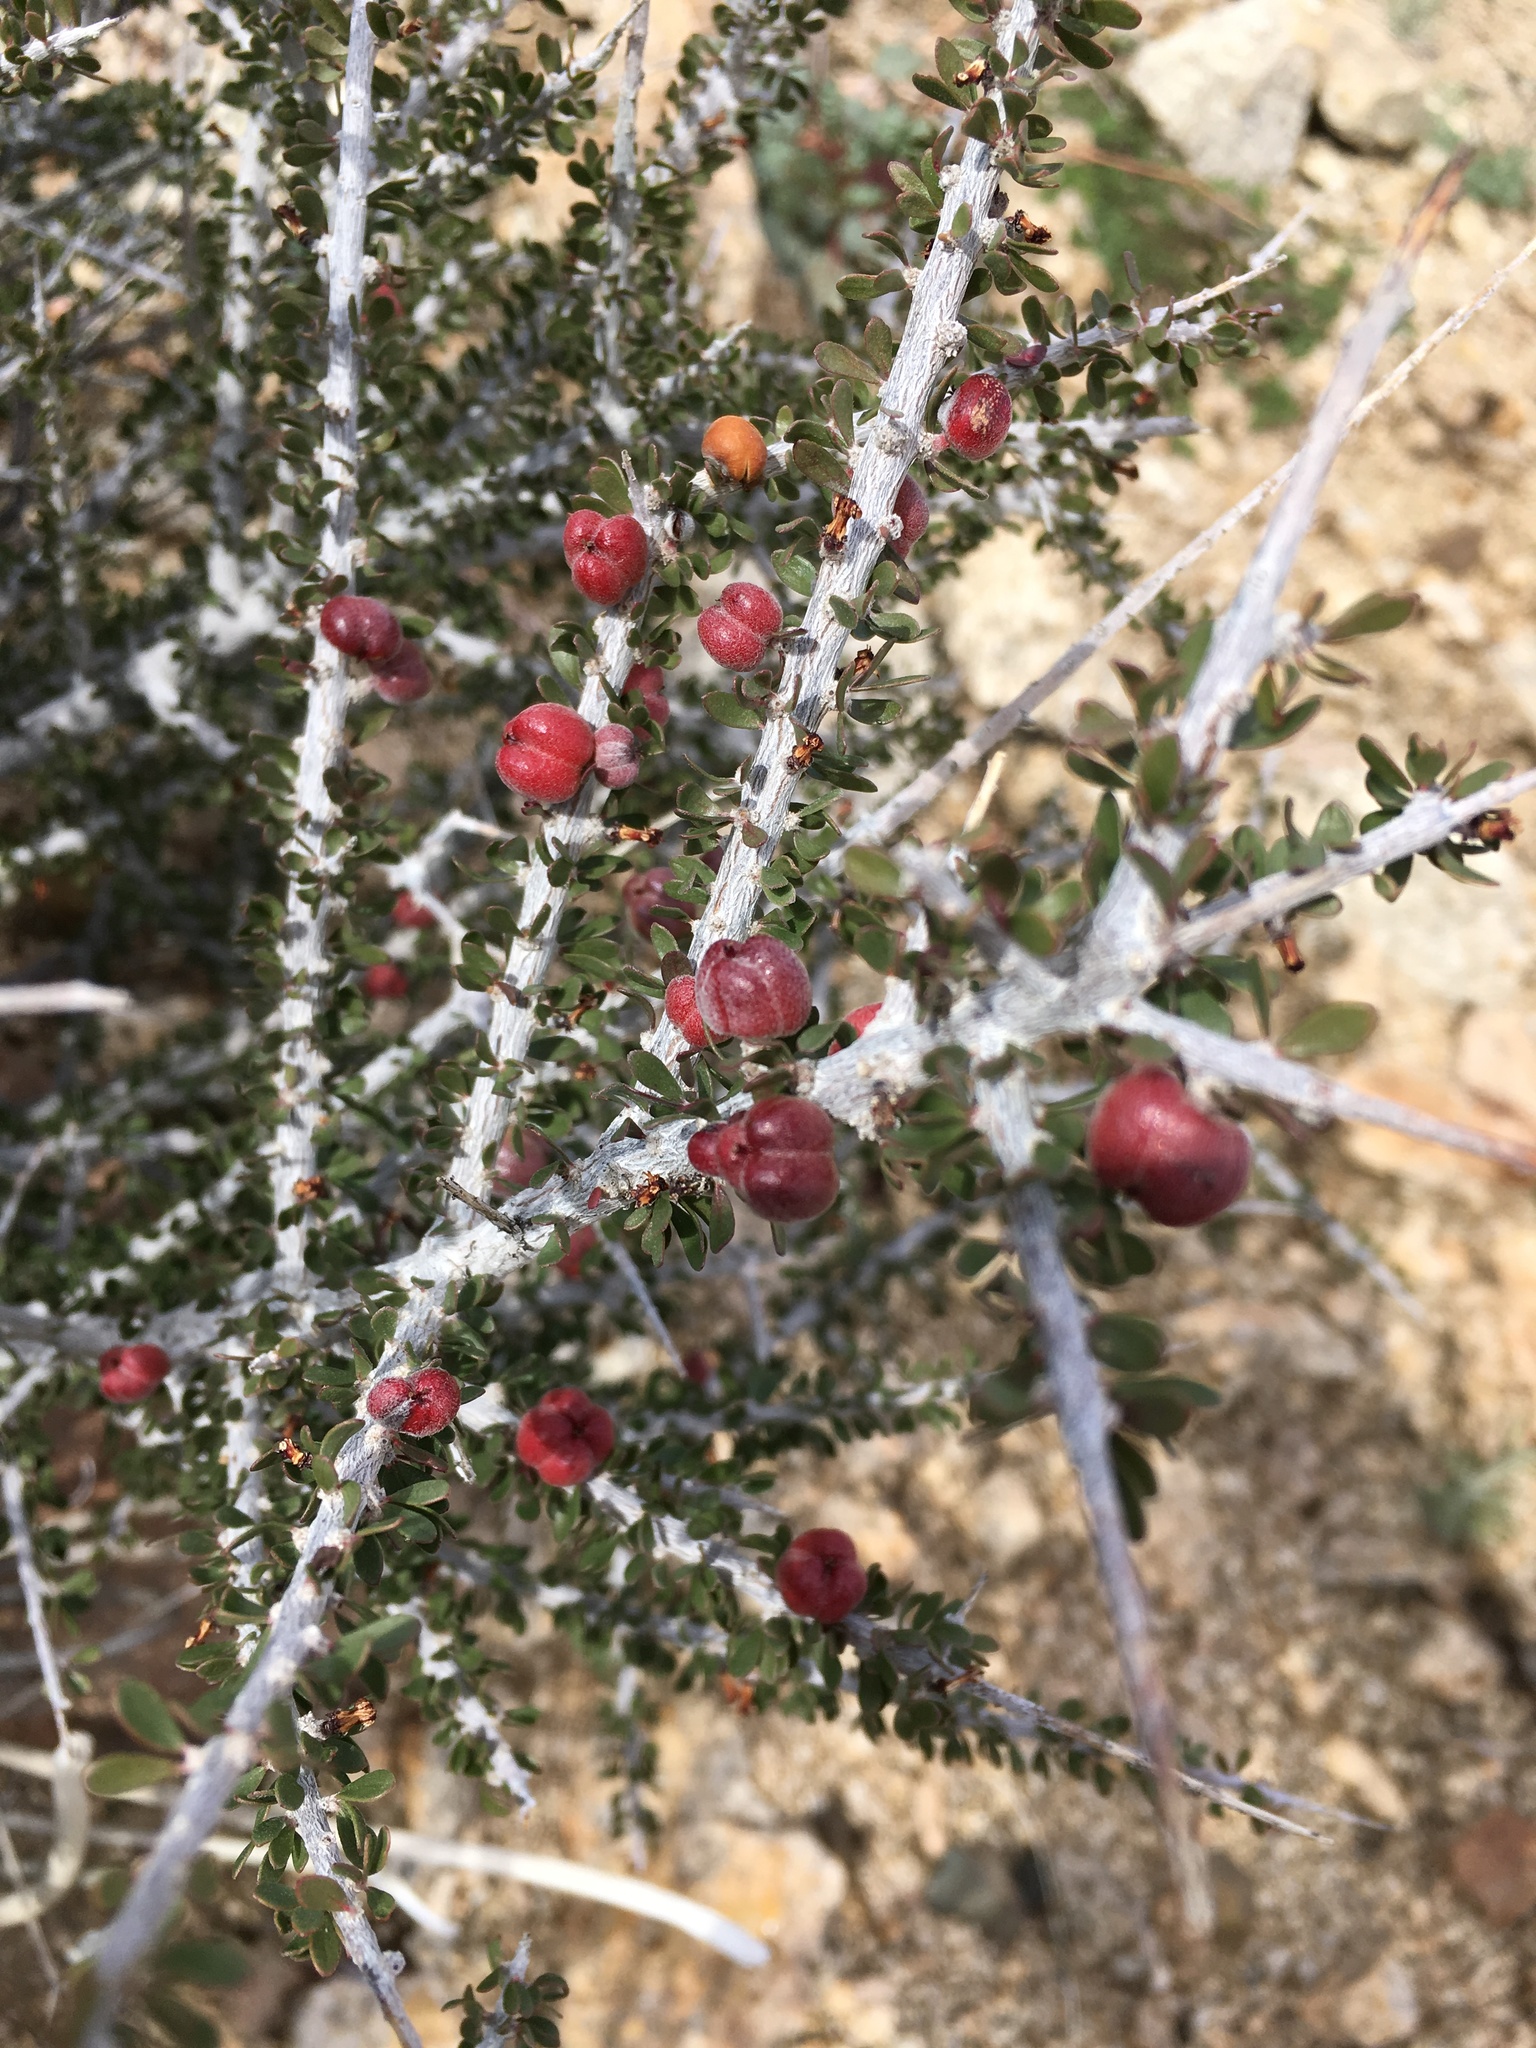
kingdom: Plantae
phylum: Tracheophyta
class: Magnoliopsida
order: Malpighiales
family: Picrodendraceae
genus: Tetracoccus
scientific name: Tetracoccus hallii
